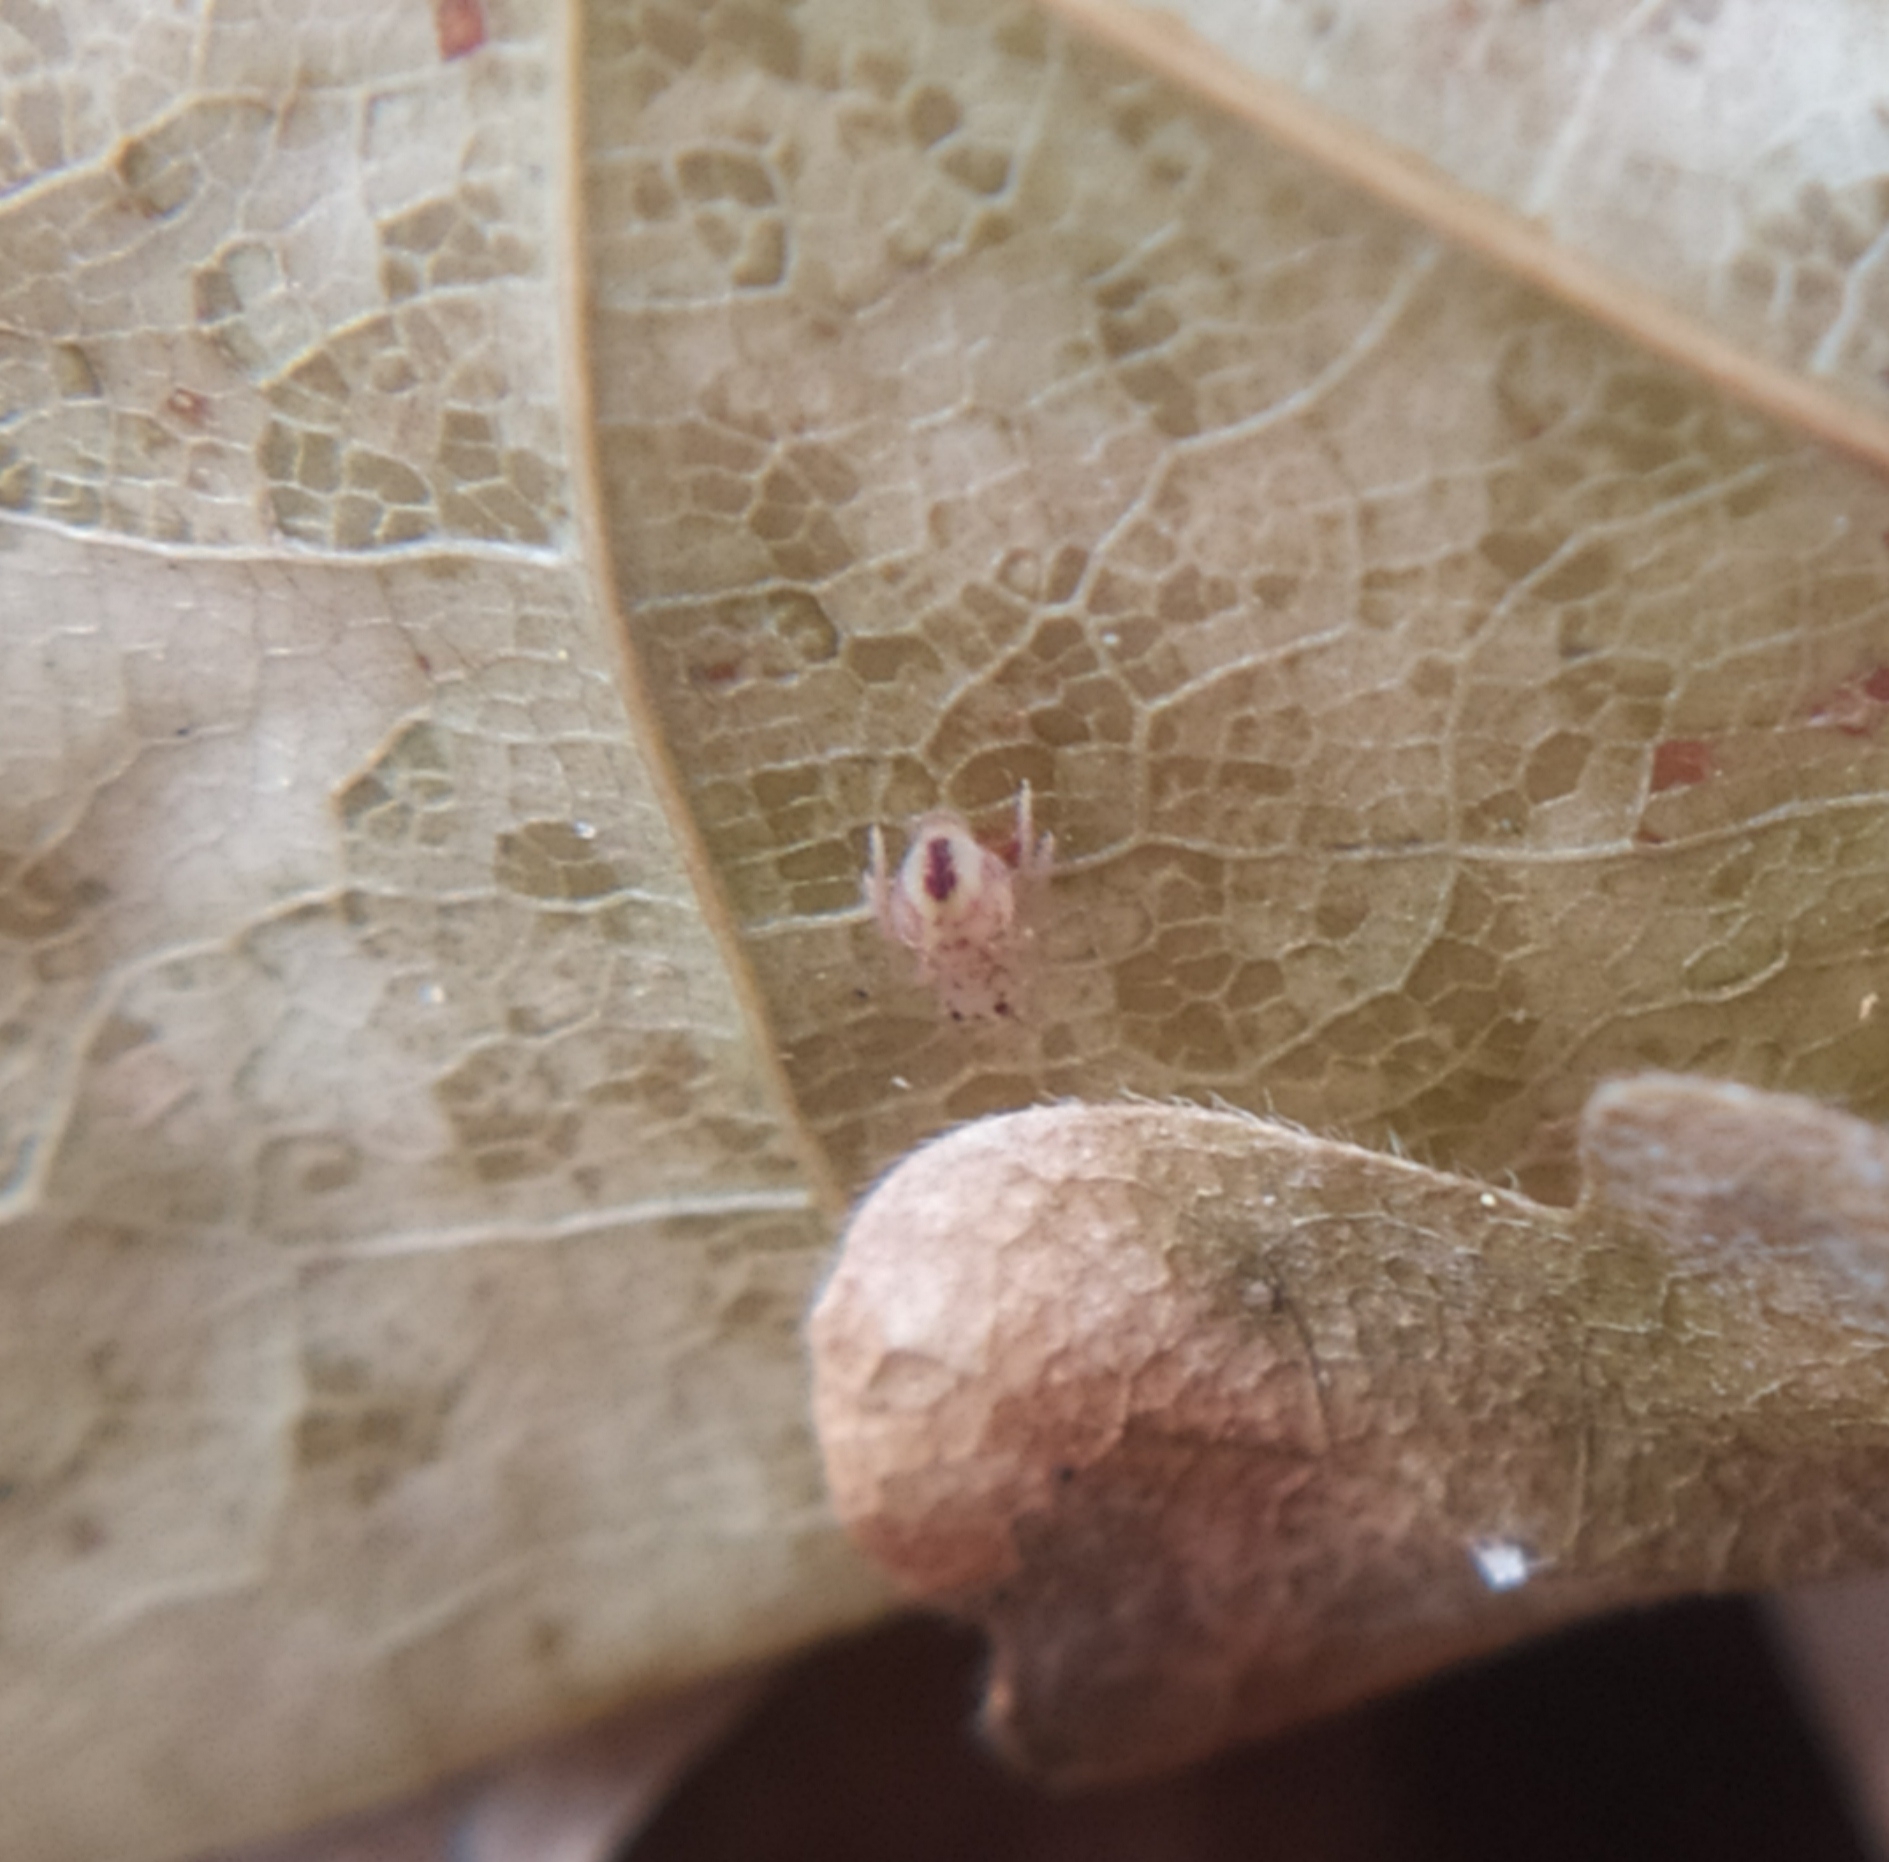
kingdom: Animalia
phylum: Arthropoda
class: Collembola
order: Symphypleona
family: Dicyrtomidae
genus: Dicyrtomina
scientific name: Dicyrtomina ornata
